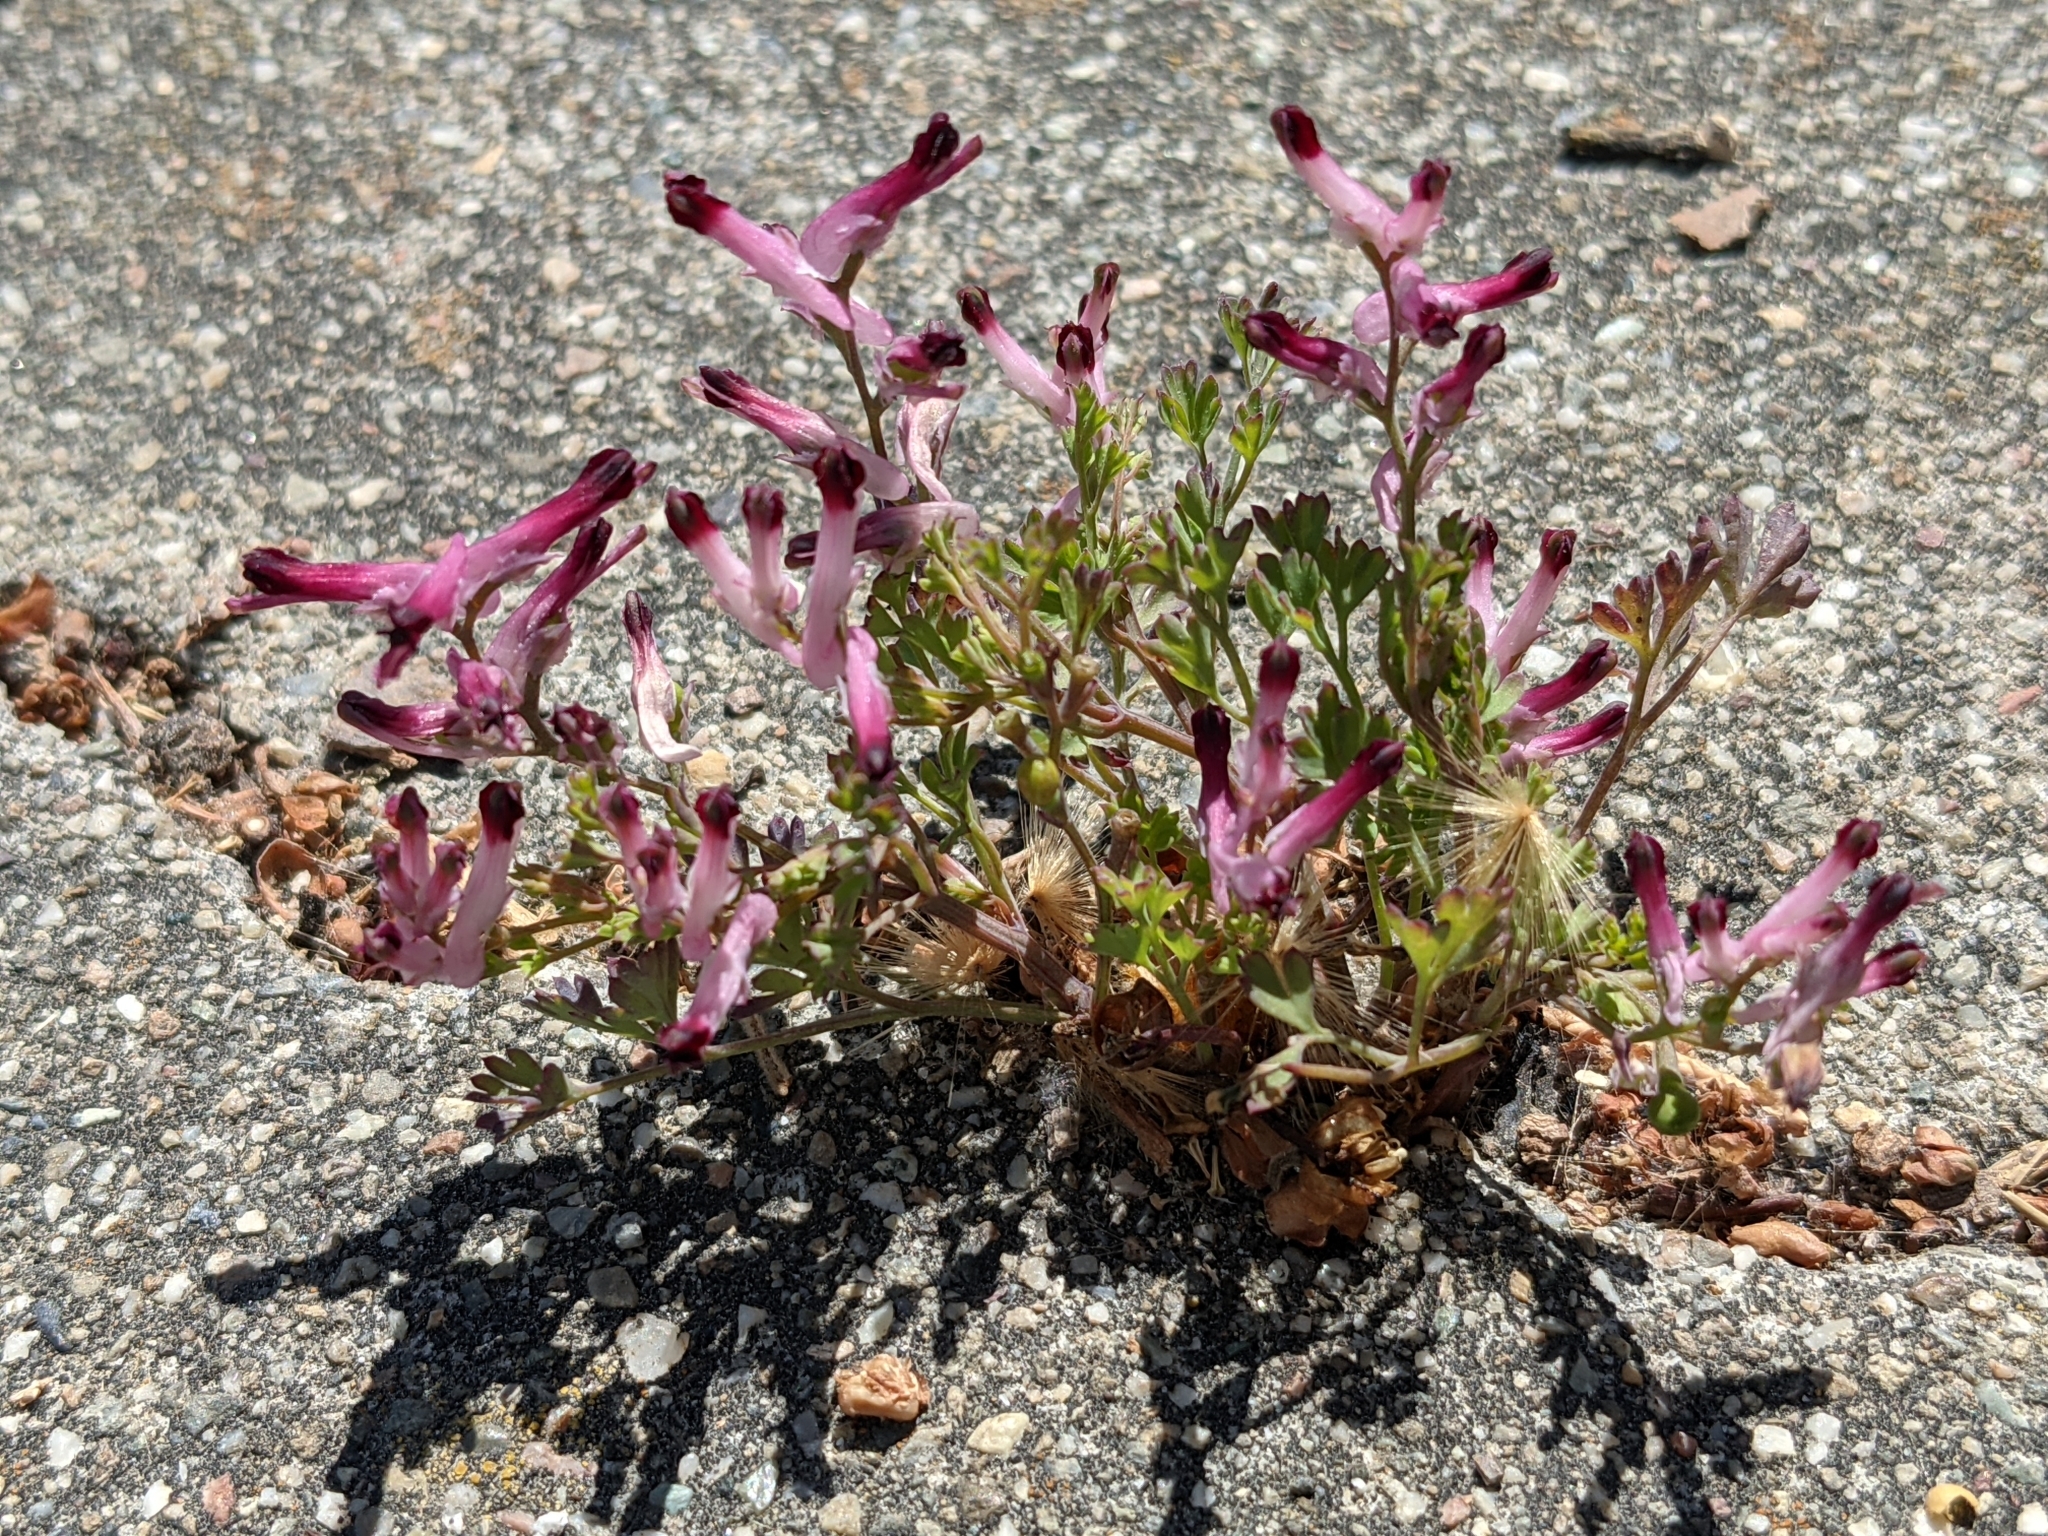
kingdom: Plantae
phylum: Tracheophyta
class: Magnoliopsida
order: Ranunculales
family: Papaveraceae
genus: Fumaria
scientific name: Fumaria muralis
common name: Common ramping-fumitory
